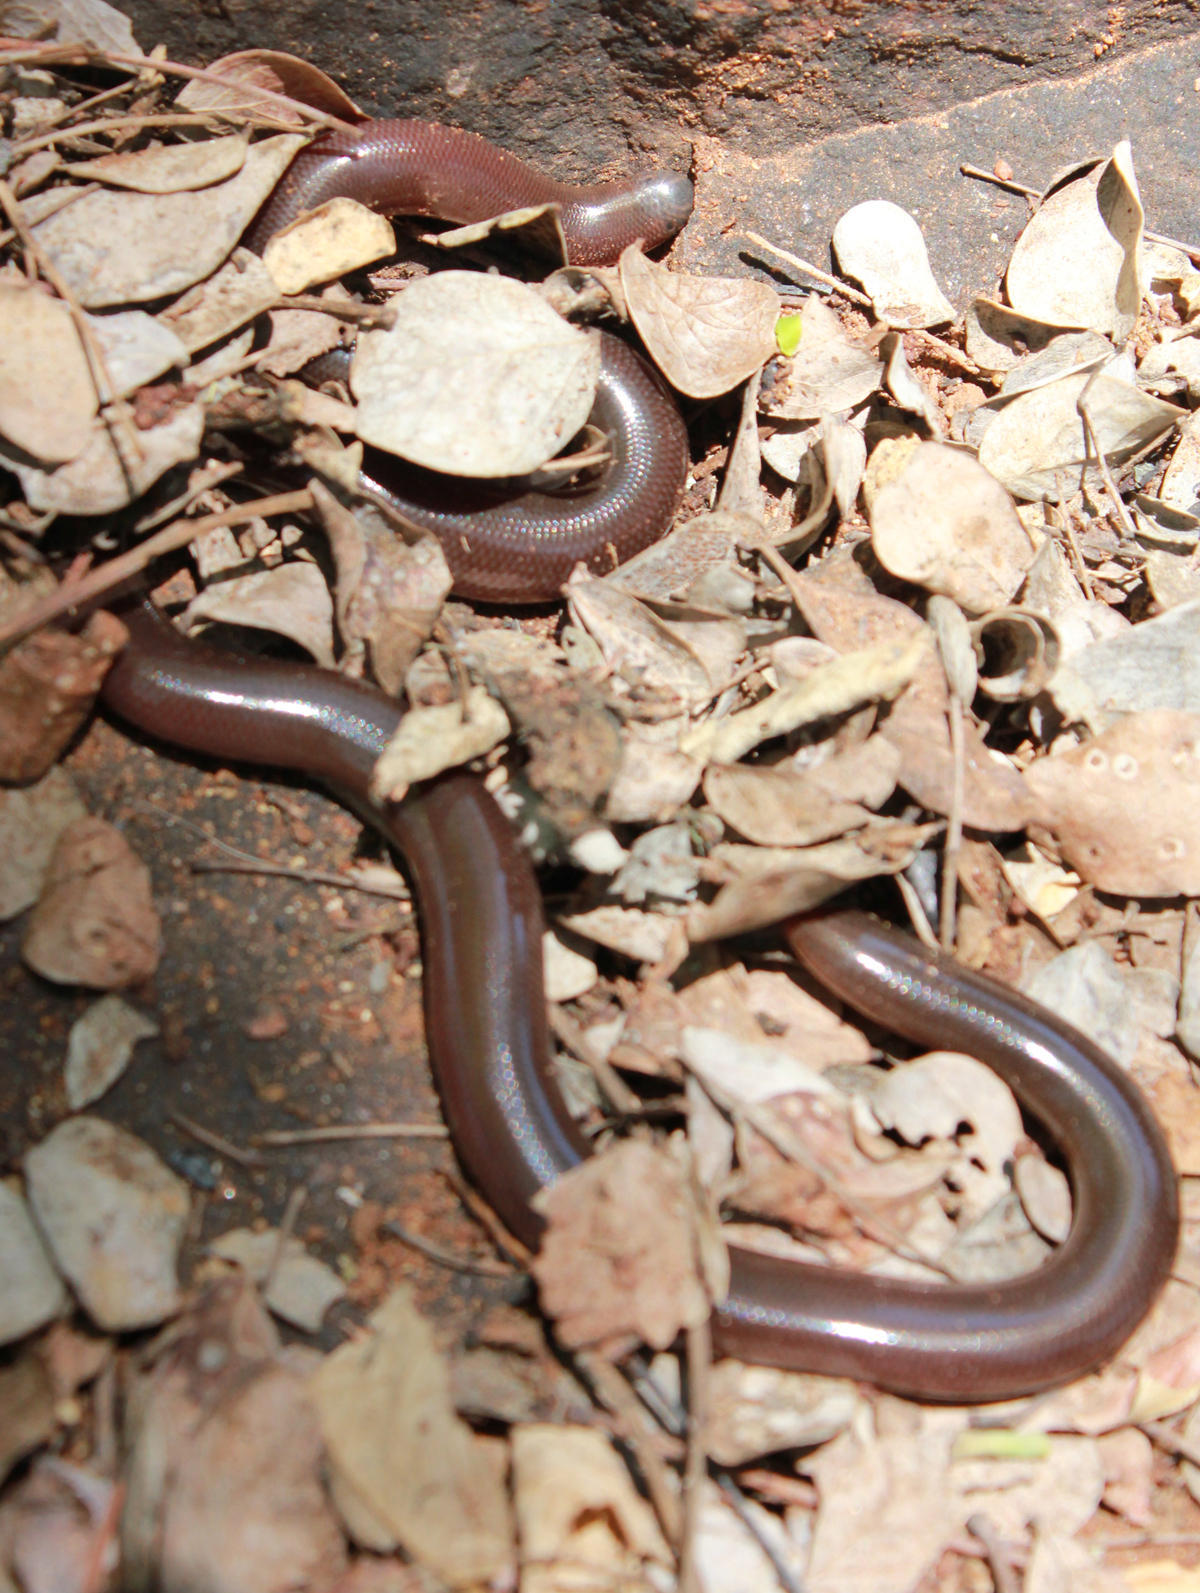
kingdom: Animalia
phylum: Chordata
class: Squamata
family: Typhlopidae
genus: Afrotyphlops
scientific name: Afrotyphlops bibronii
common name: Bibron's blind snake
